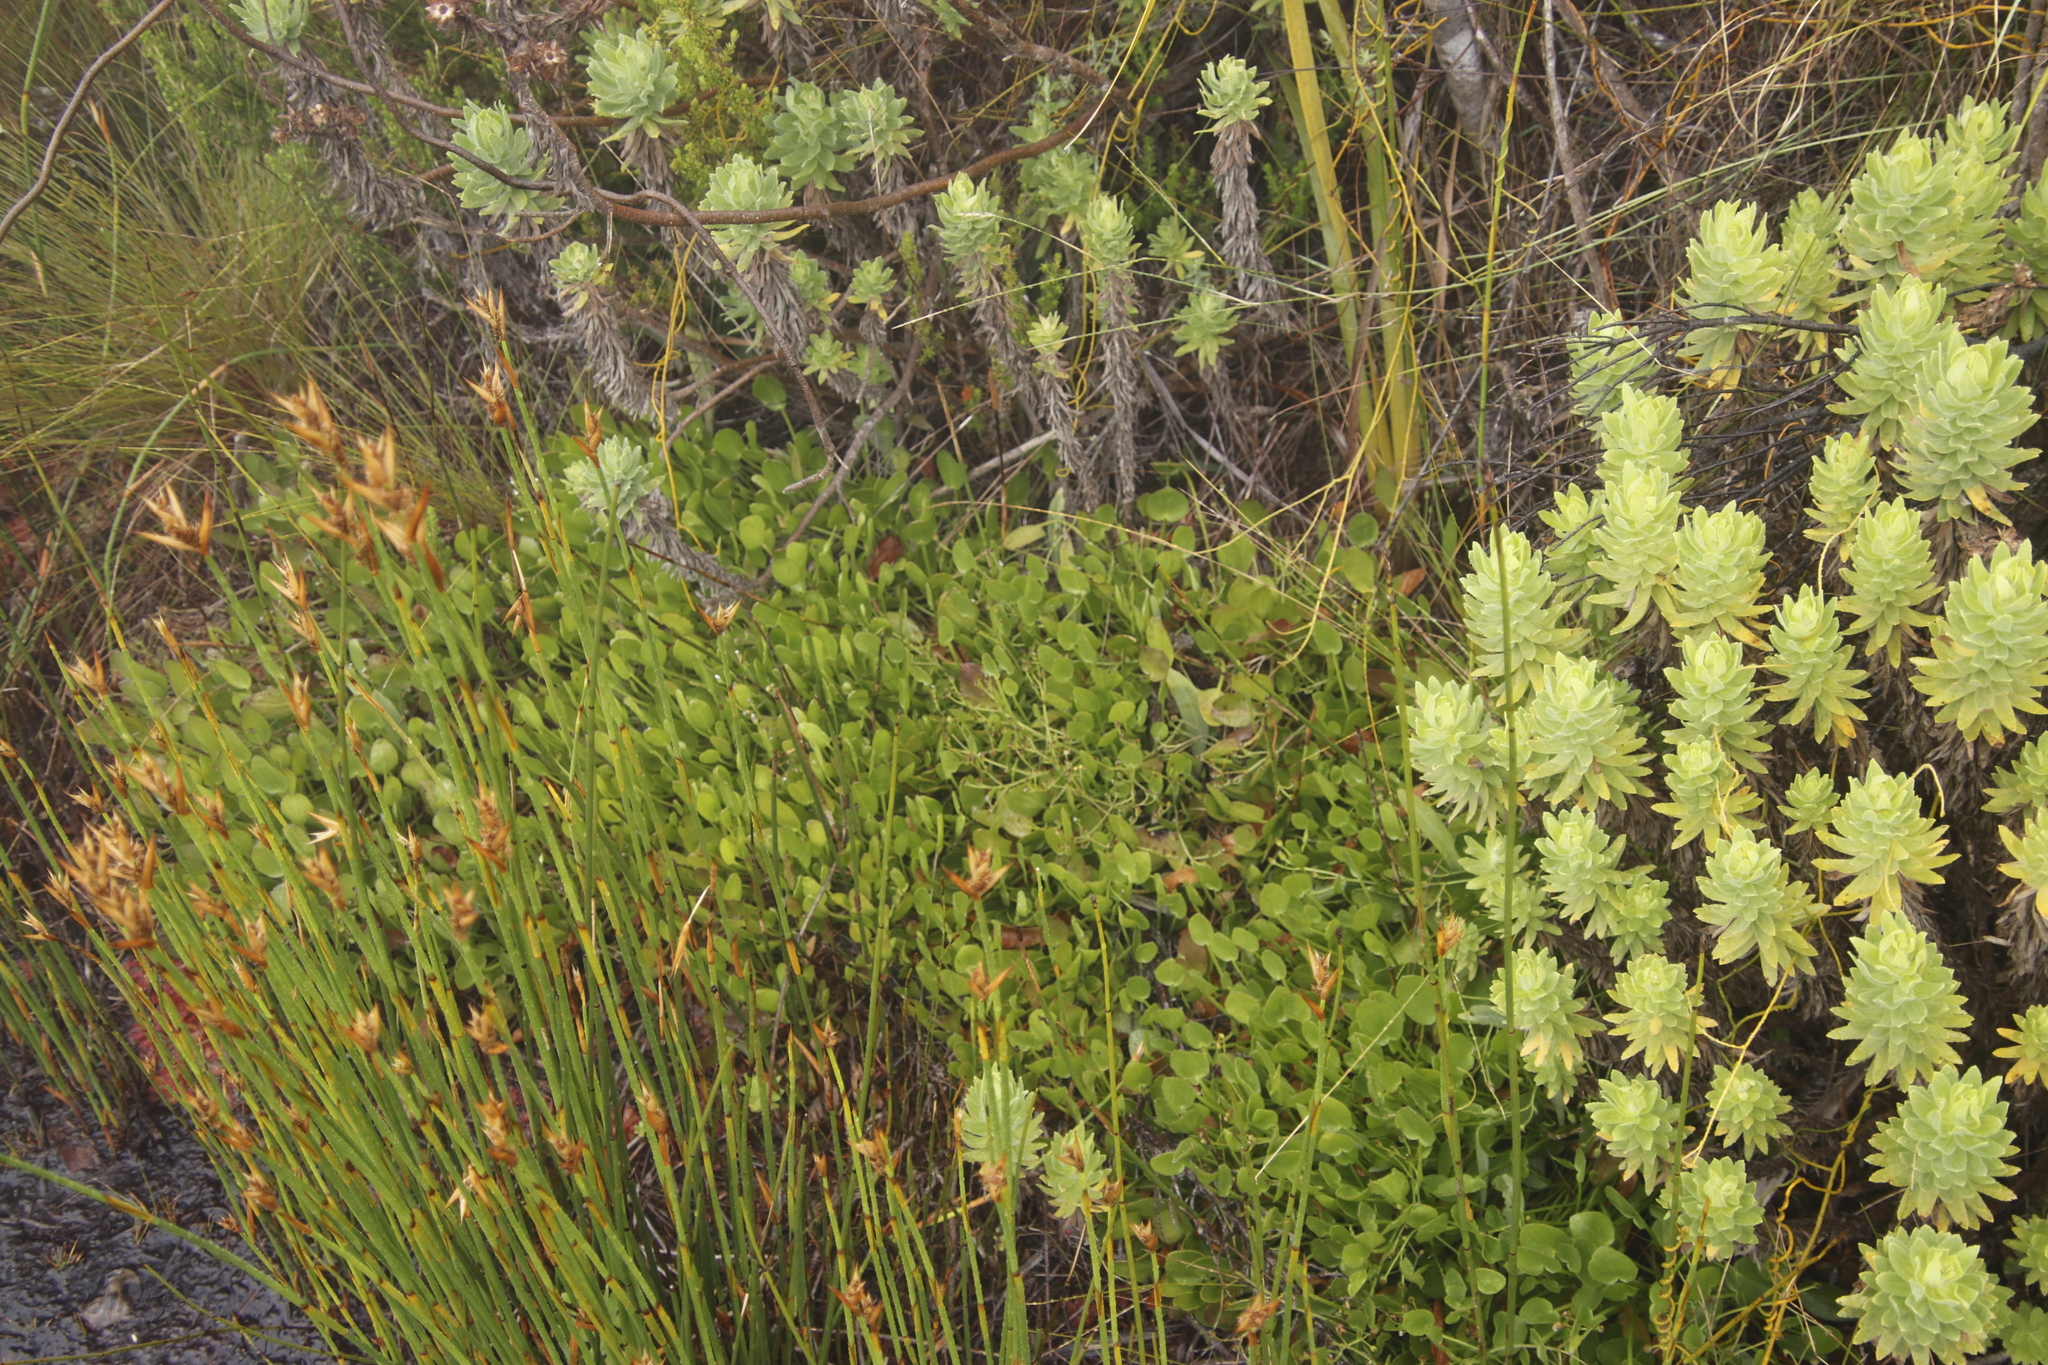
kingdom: Plantae
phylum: Tracheophyta
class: Magnoliopsida
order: Asterales
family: Menyanthaceae
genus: Villarsia
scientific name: Villarsia manningiana
